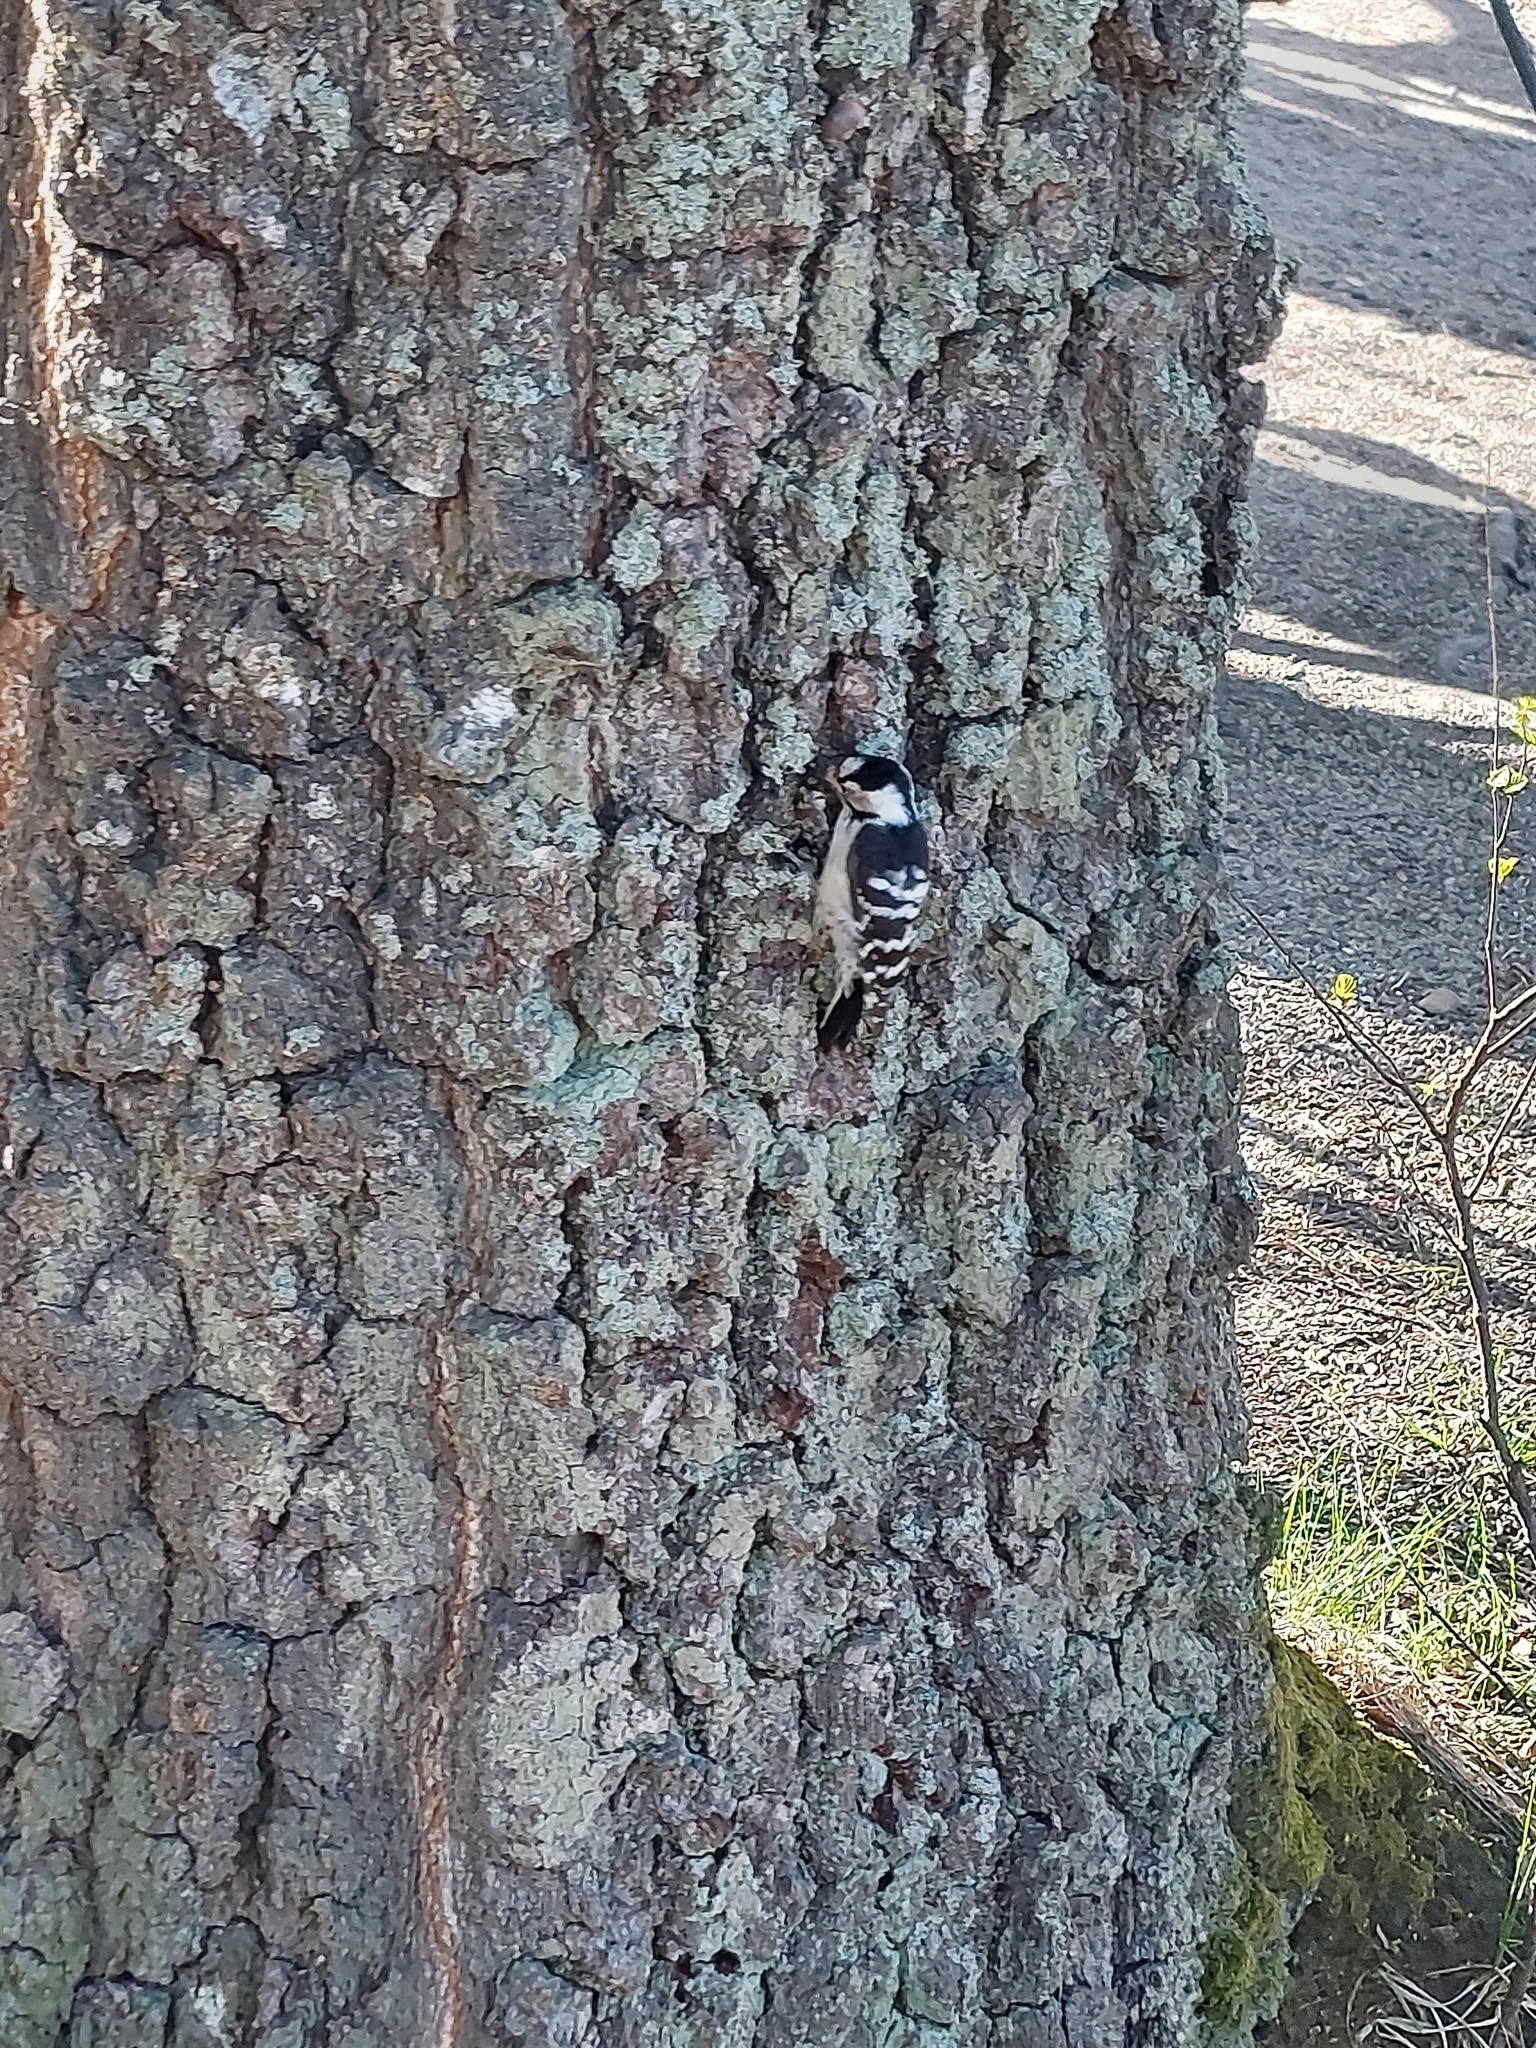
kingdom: Animalia
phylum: Chordata
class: Aves
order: Piciformes
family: Picidae
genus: Dryobates
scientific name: Dryobates minor
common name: Lesser spotted woodpecker
